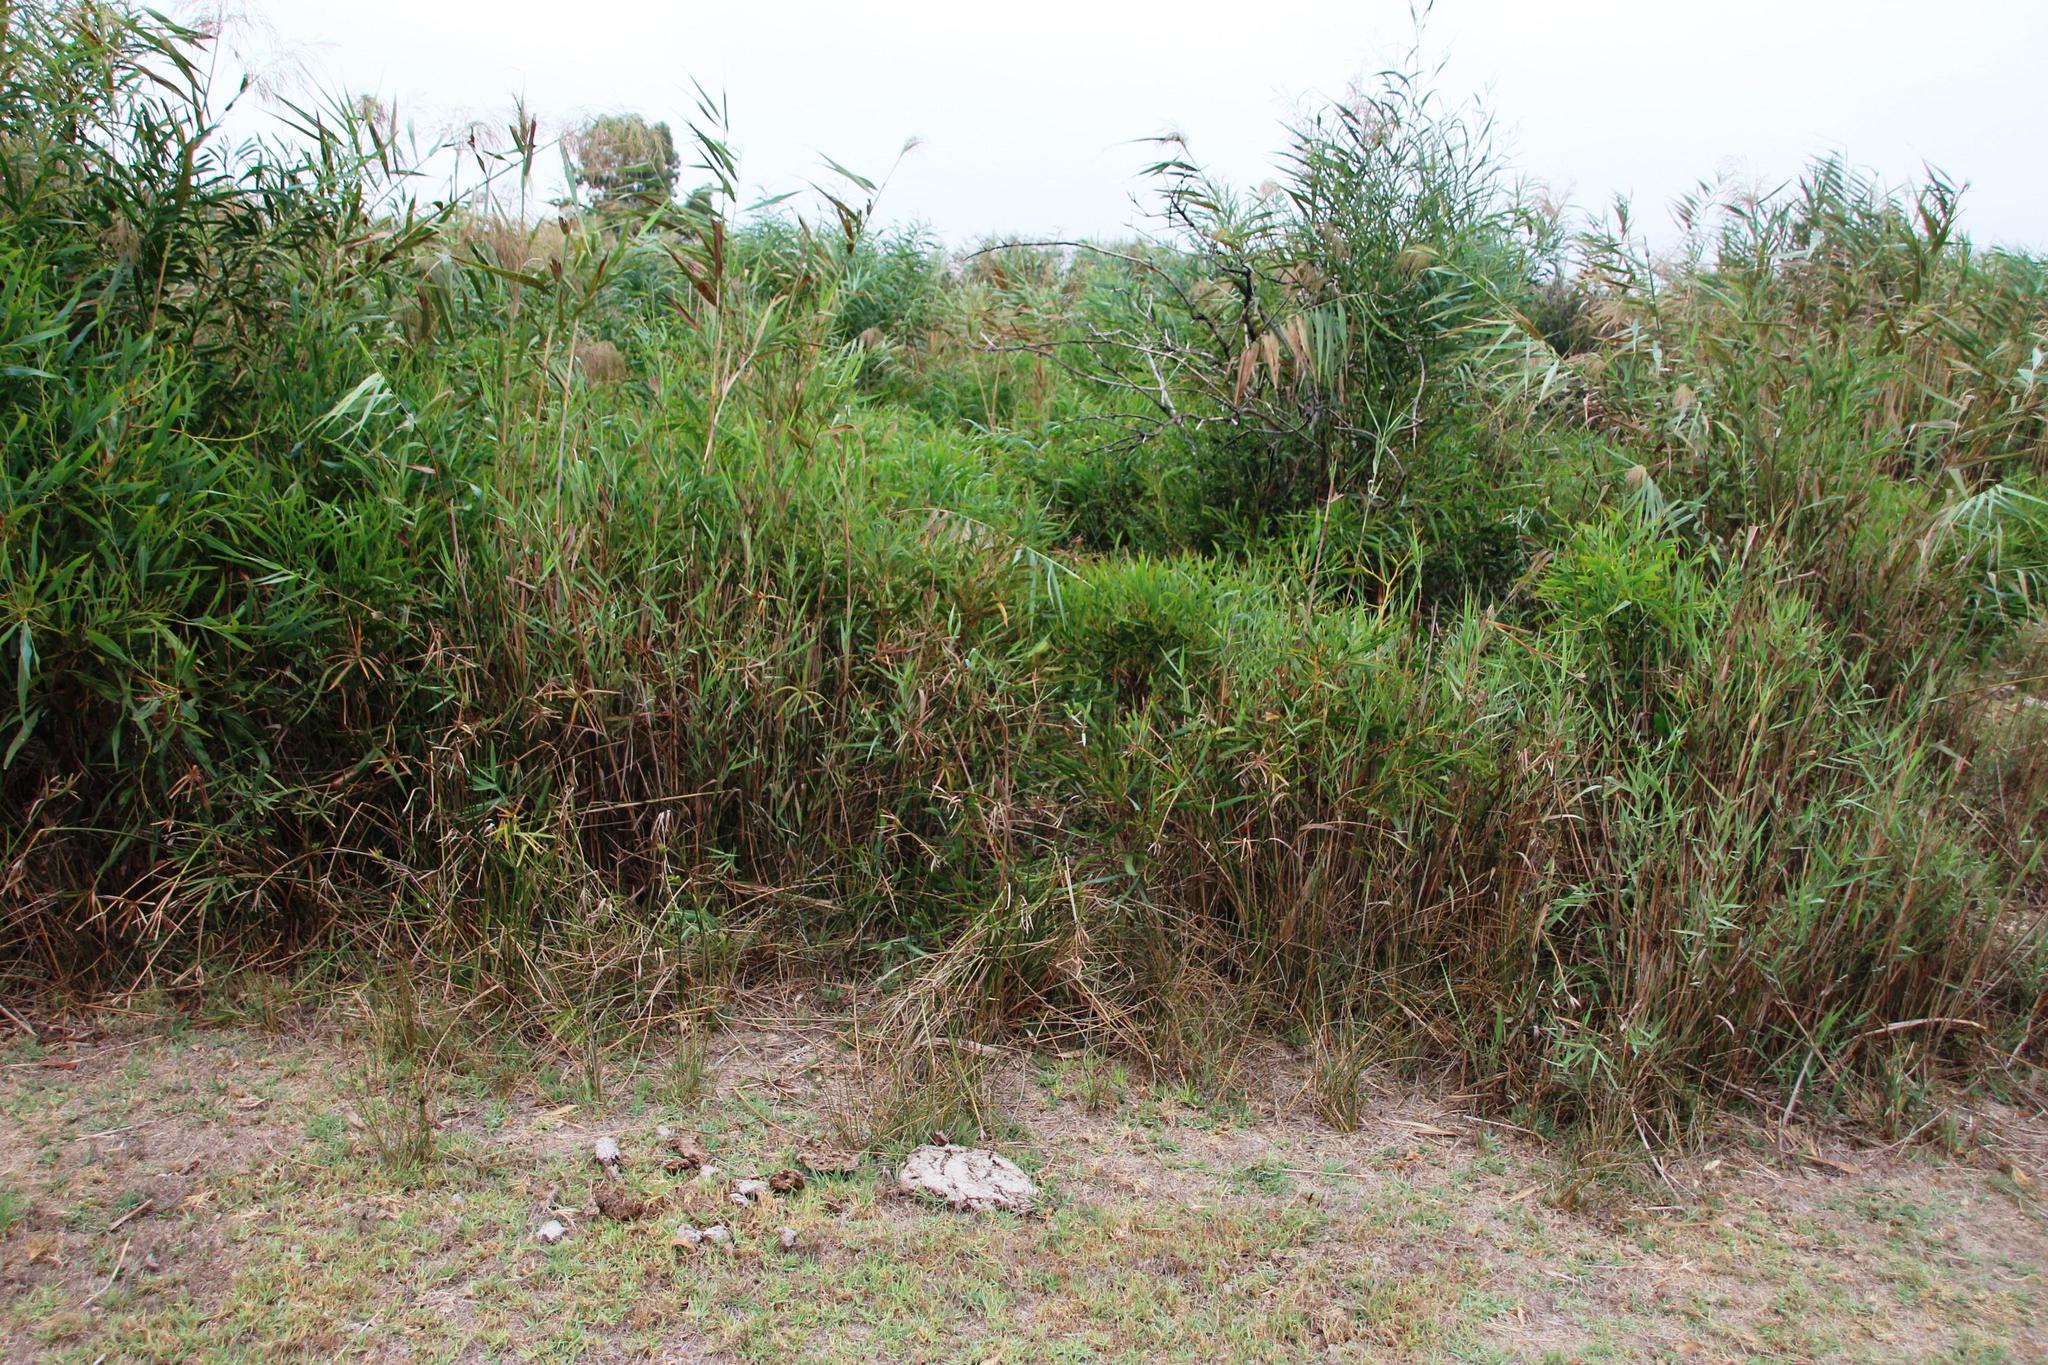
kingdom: Plantae
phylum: Tracheophyta
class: Liliopsida
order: Poales
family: Cyperaceae
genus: Cyperus
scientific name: Cyperus textilis
